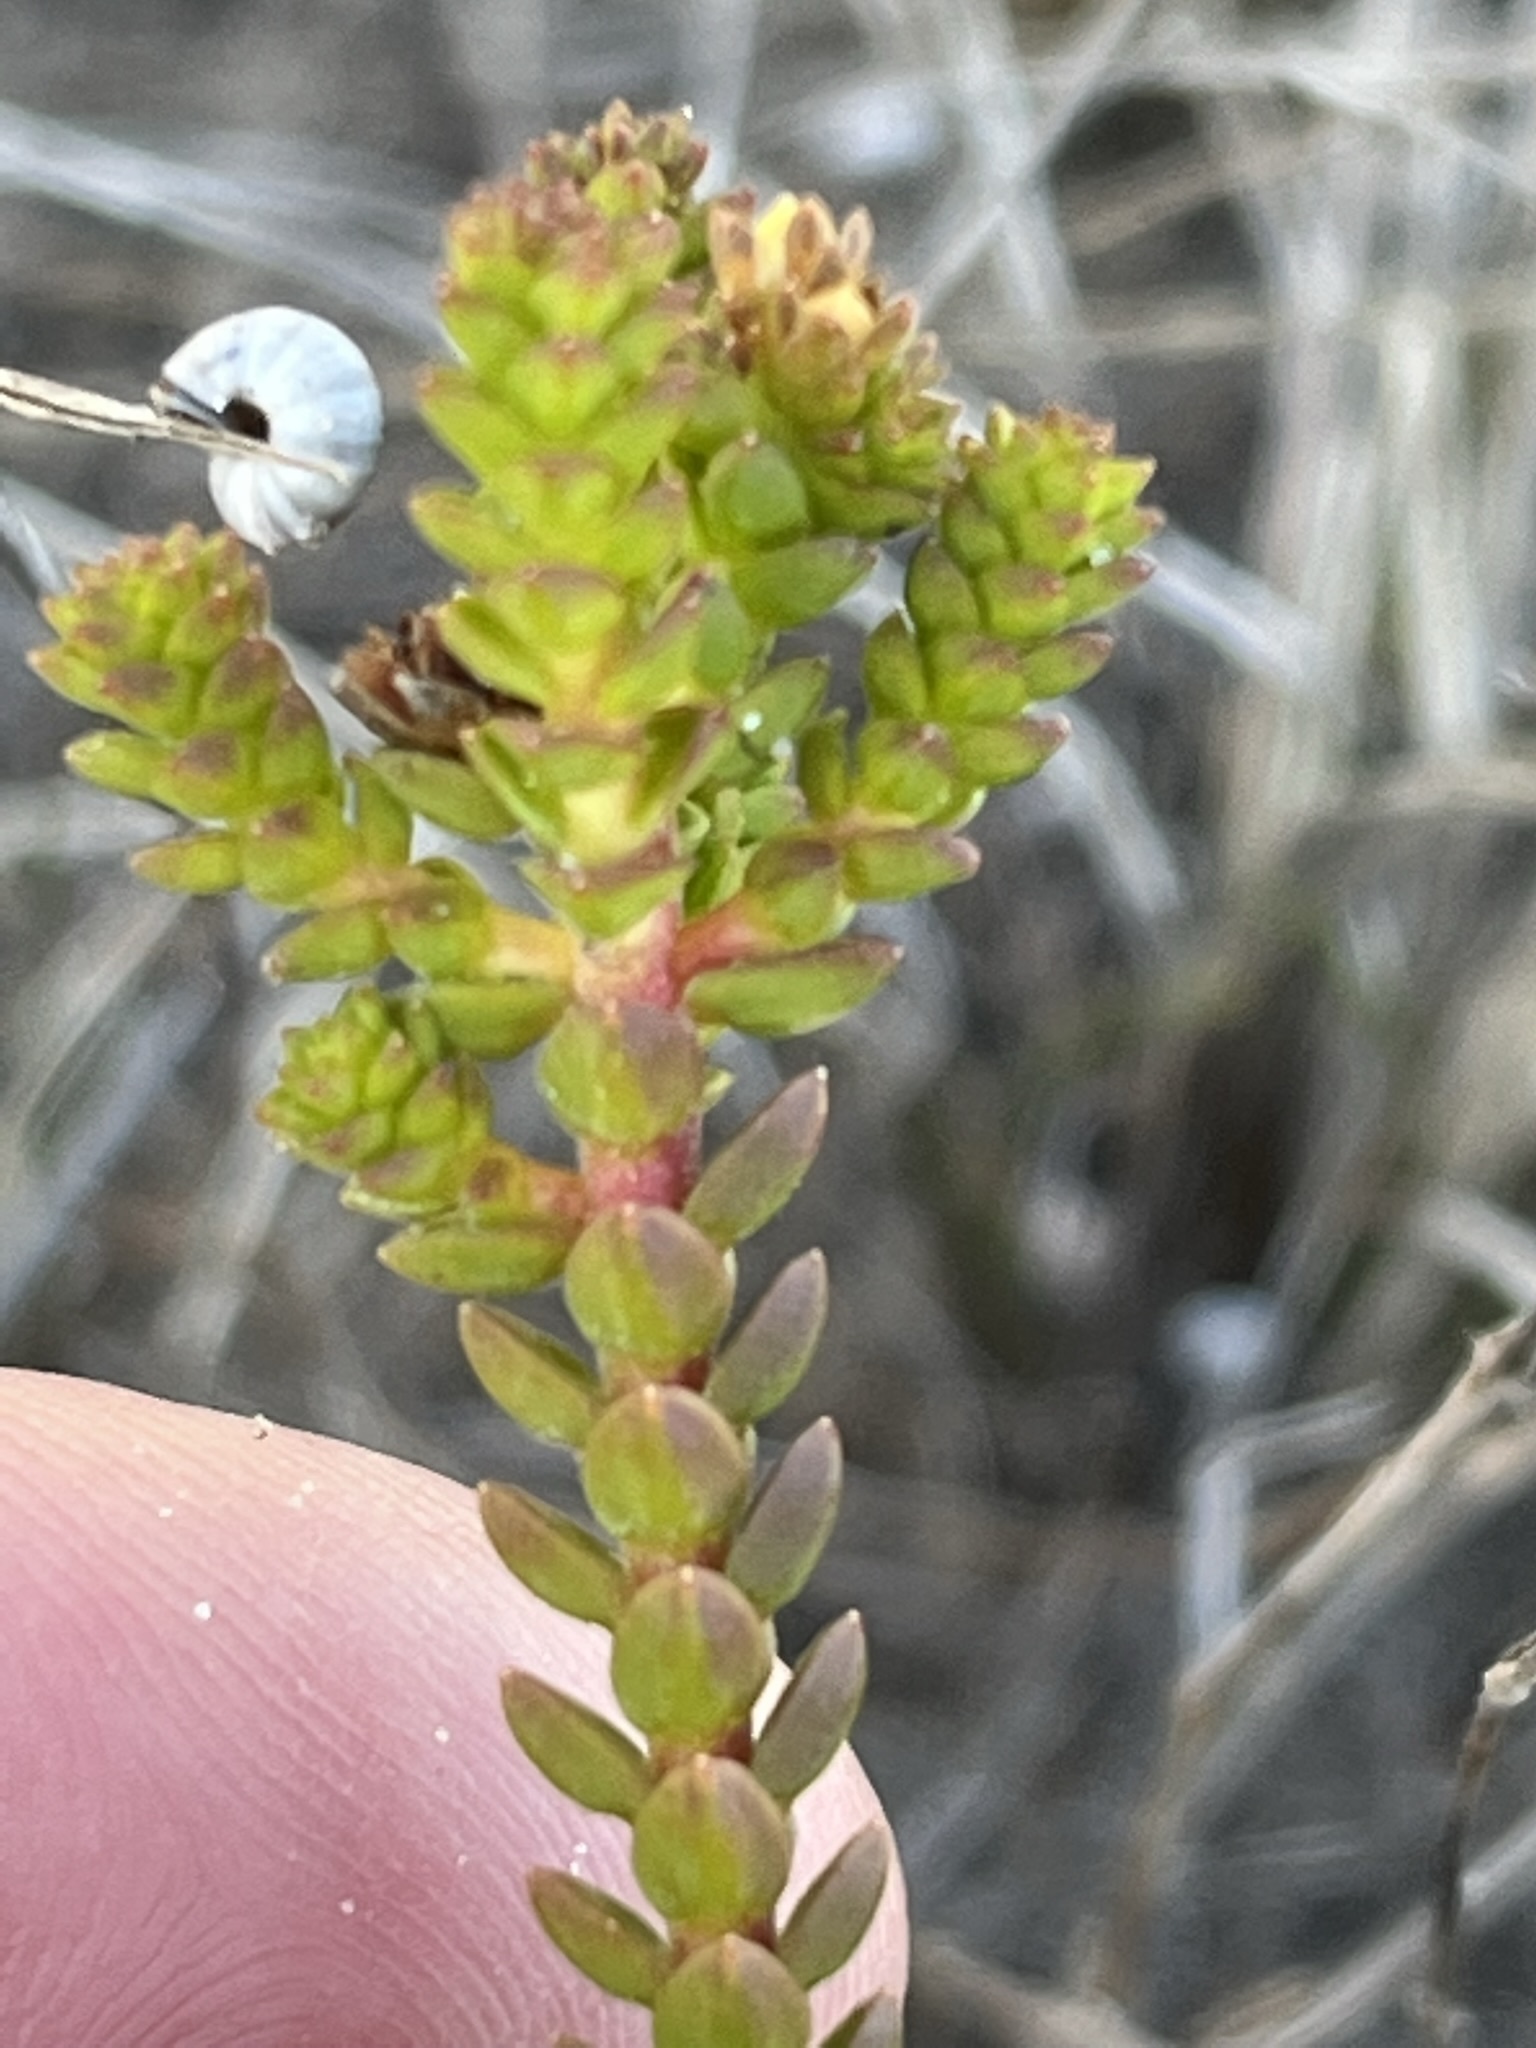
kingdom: Plantae
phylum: Tracheophyta
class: Magnoliopsida
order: Sapindales
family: Rutaceae
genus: Diosma
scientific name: Diosma guthriei
